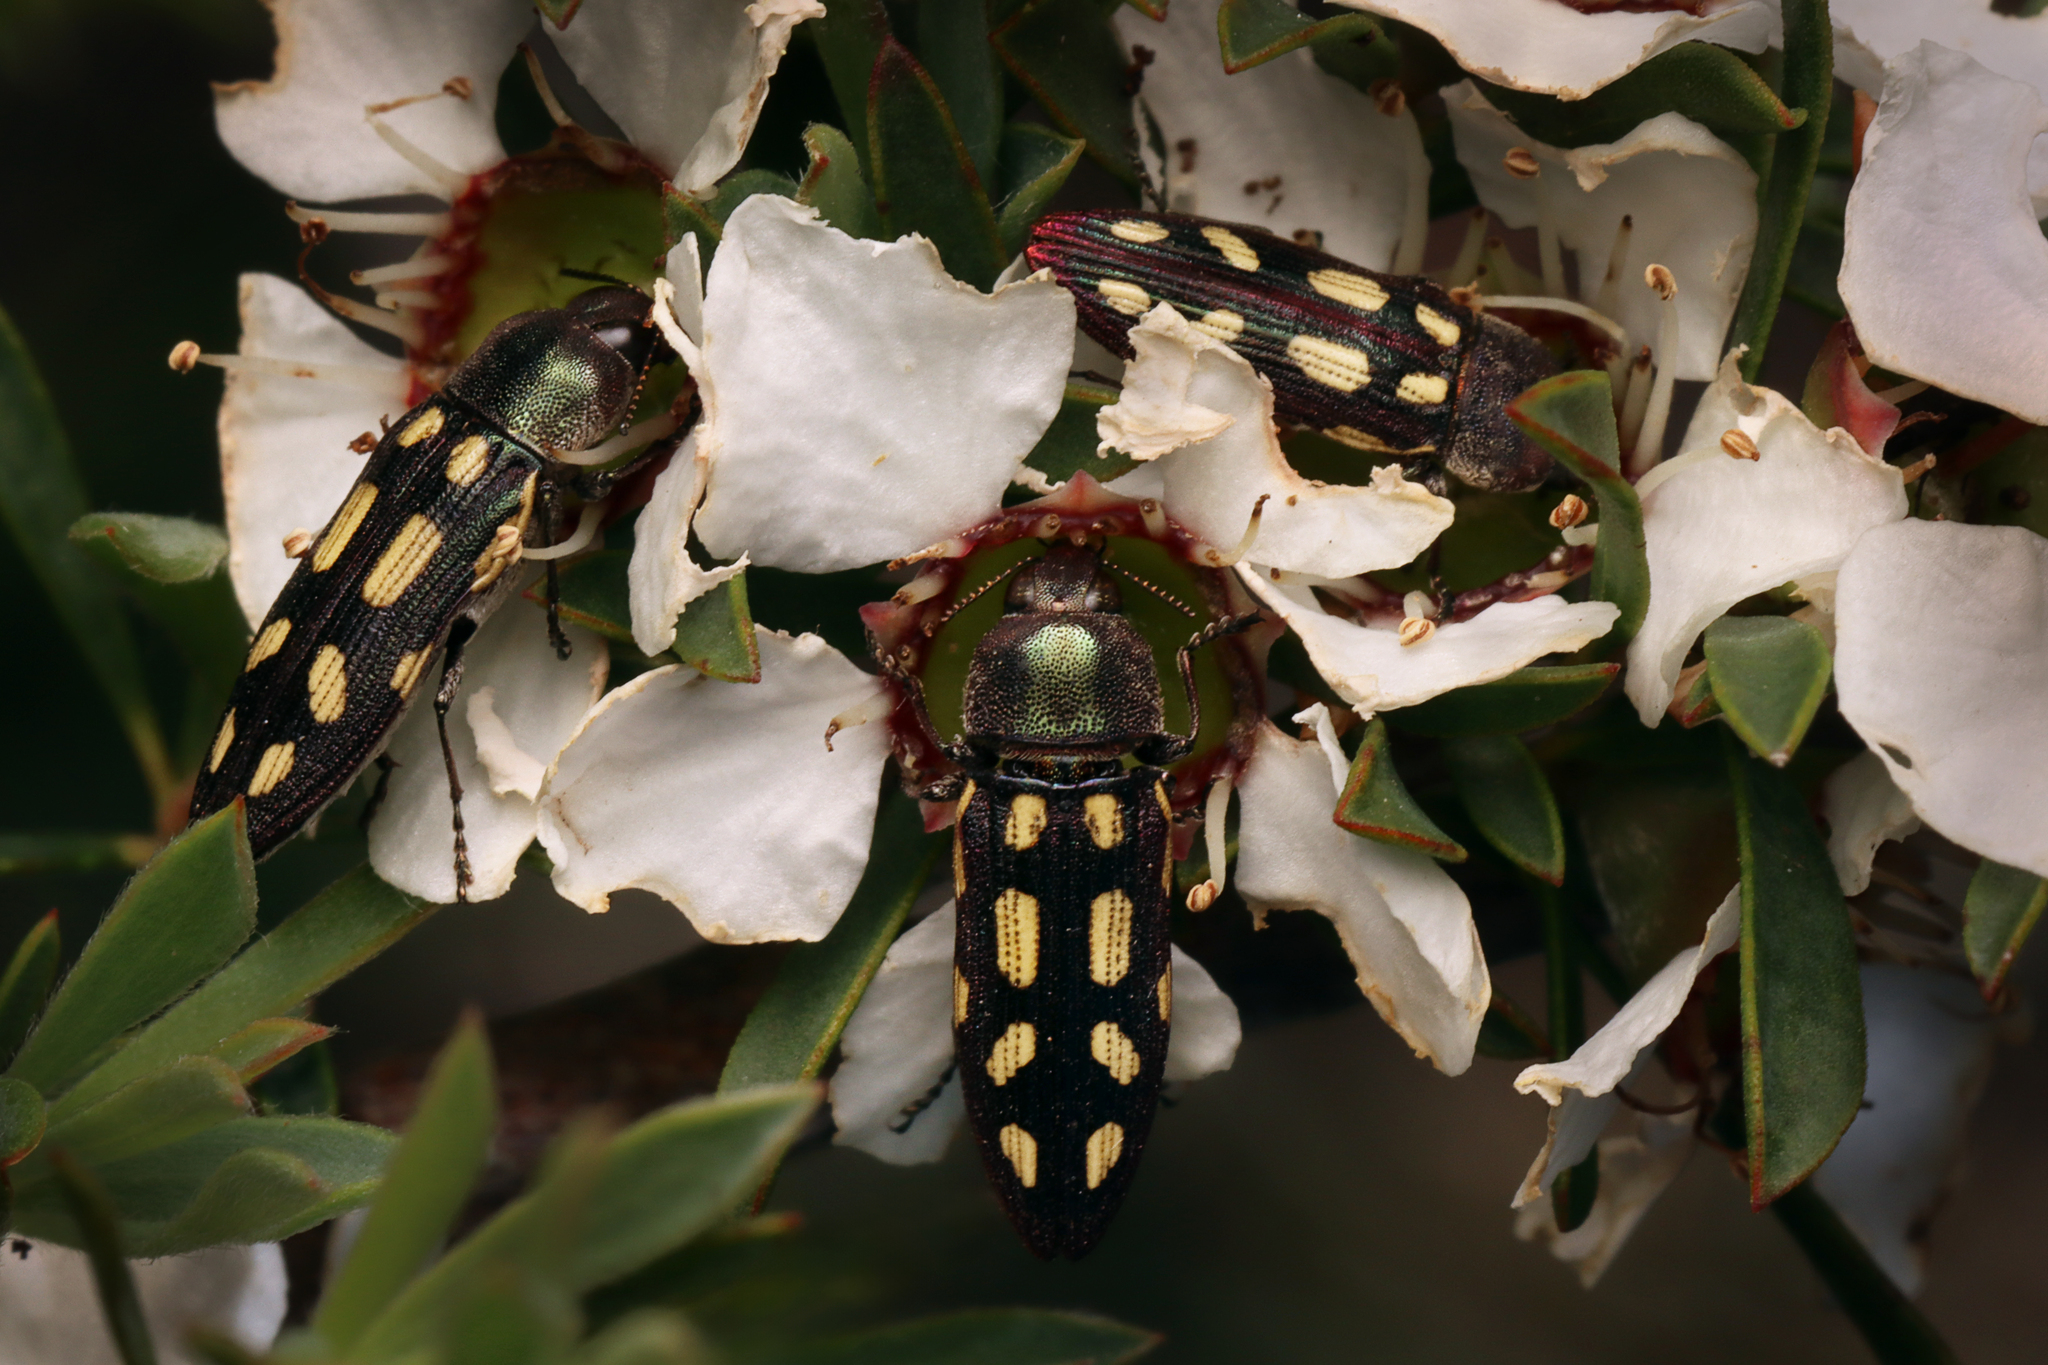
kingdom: Animalia
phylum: Arthropoda
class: Insecta
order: Coleoptera
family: Buprestidae
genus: Castiarina
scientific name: Castiarina parallela
